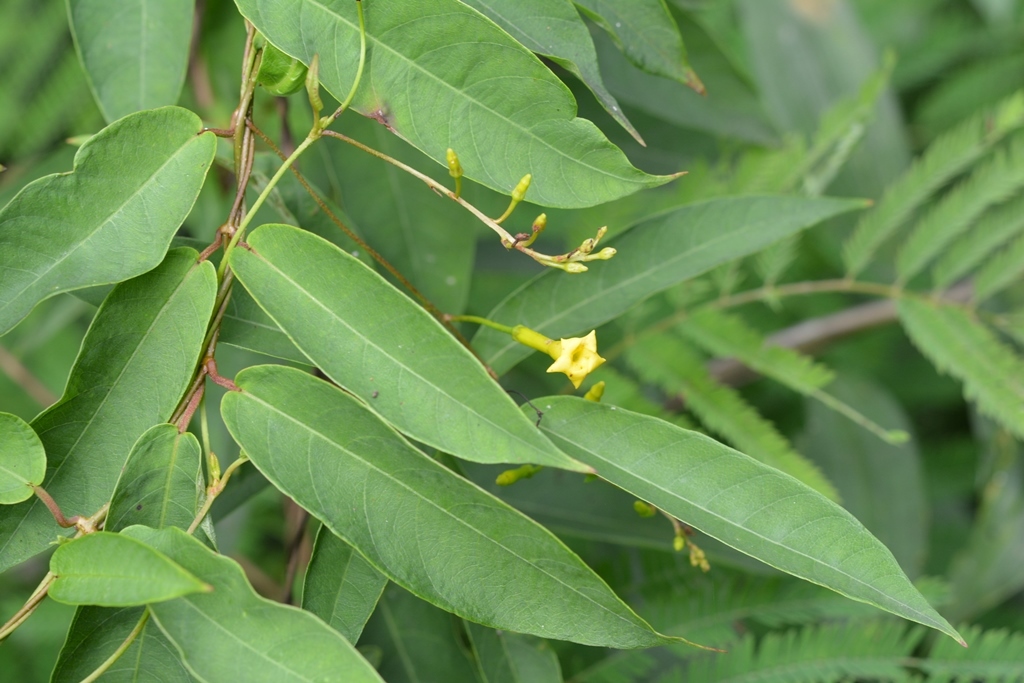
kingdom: Plantae
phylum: Tracheophyta
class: Magnoliopsida
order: Gentianales
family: Apocynaceae
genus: Mandevilla
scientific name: Mandevilla tubiflora
